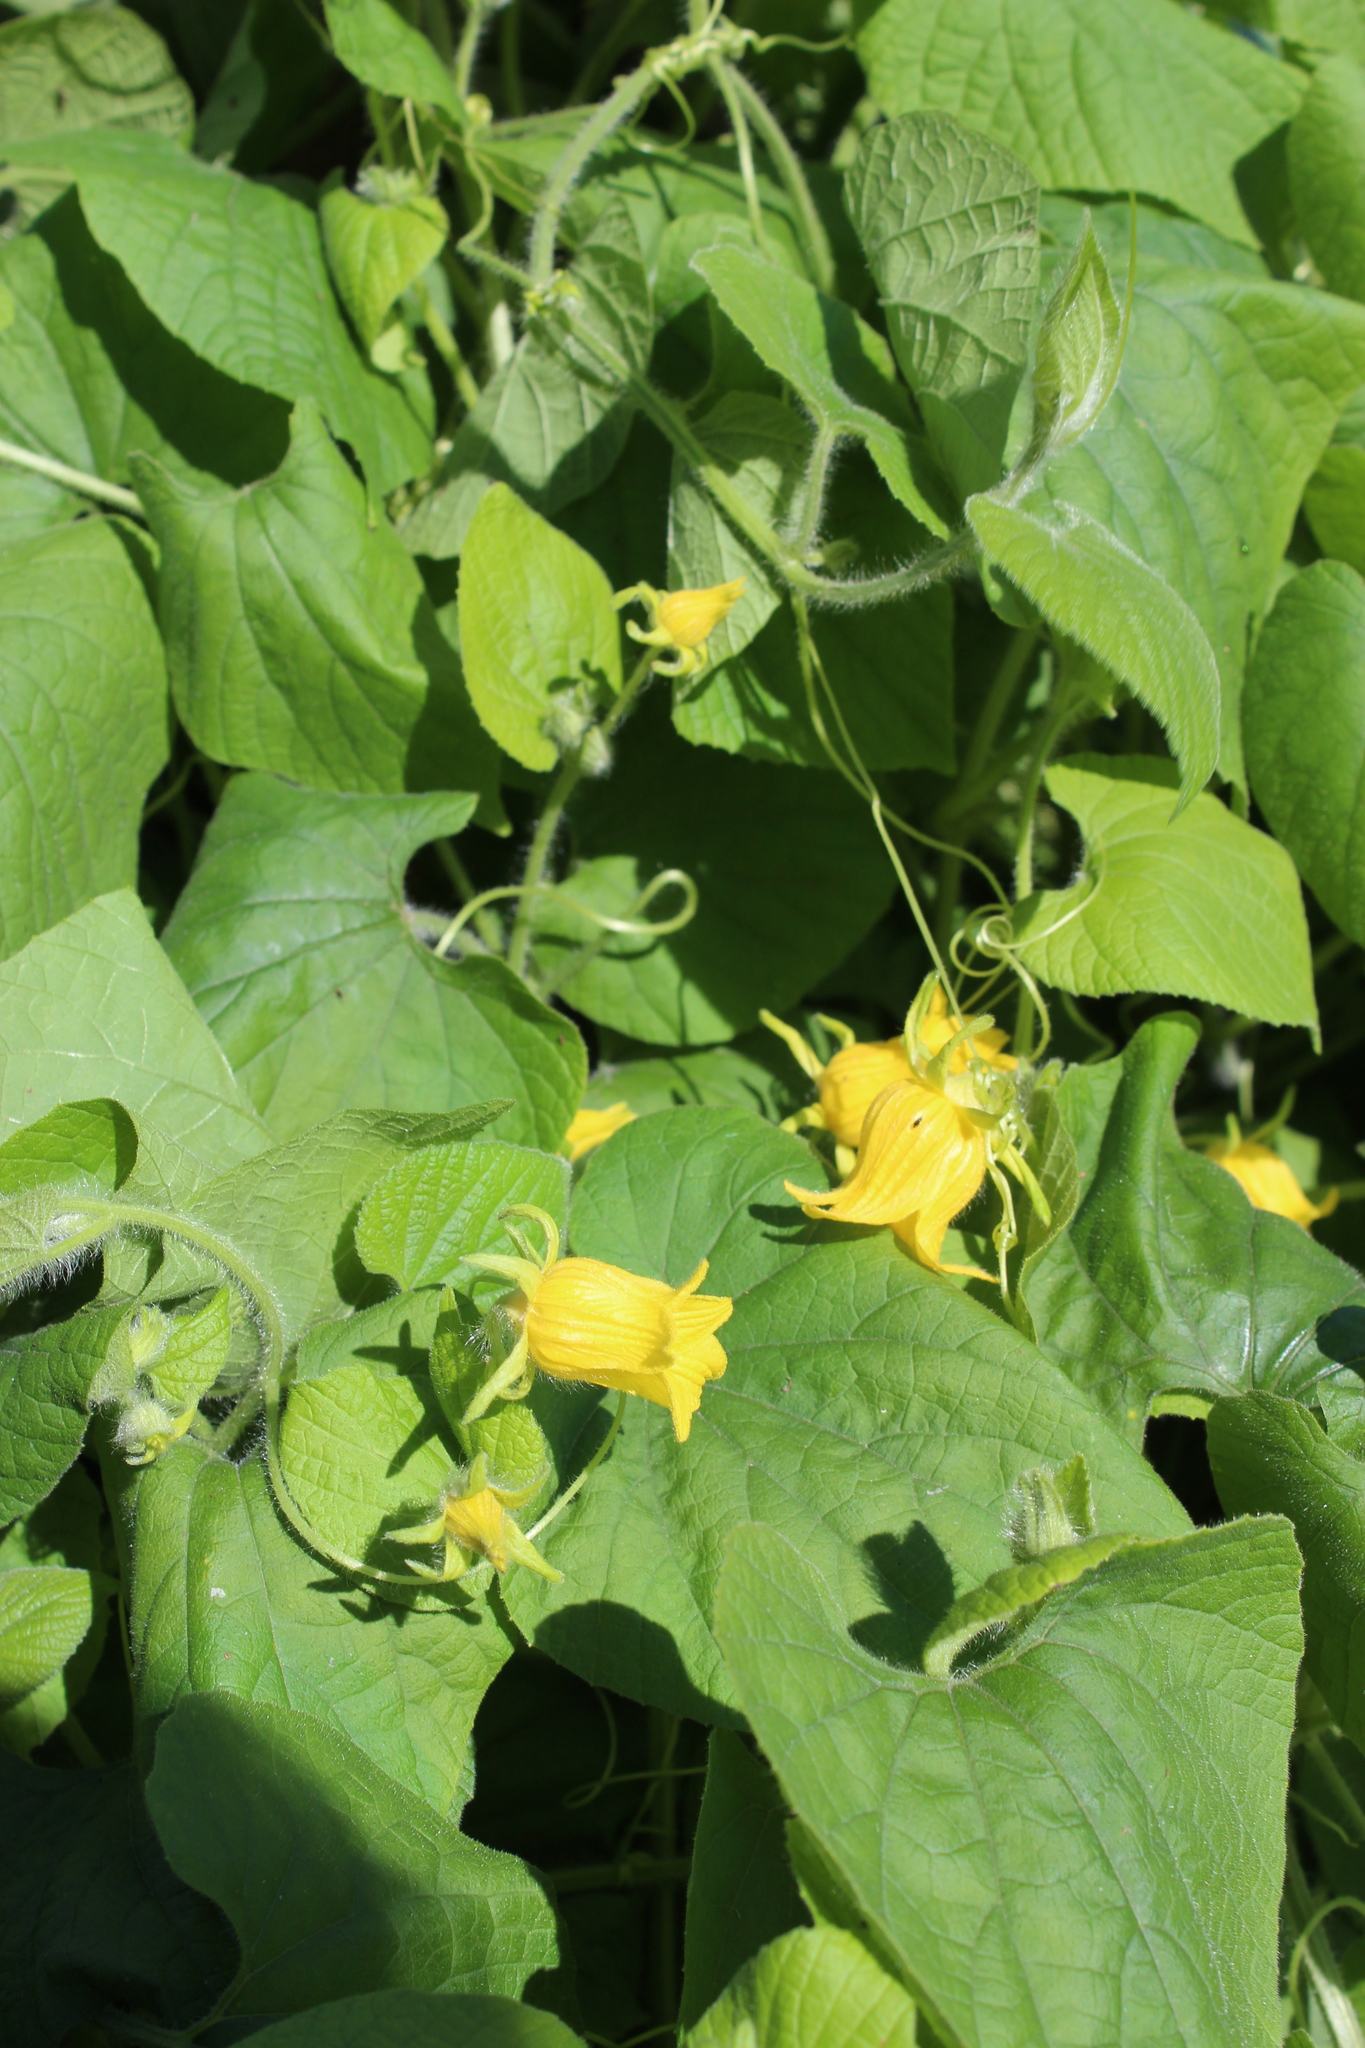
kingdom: Plantae
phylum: Tracheophyta
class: Magnoliopsida
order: Cucurbitales
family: Cucurbitaceae
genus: Thladiantha
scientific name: Thladiantha dubia
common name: Manchu tubergourd
